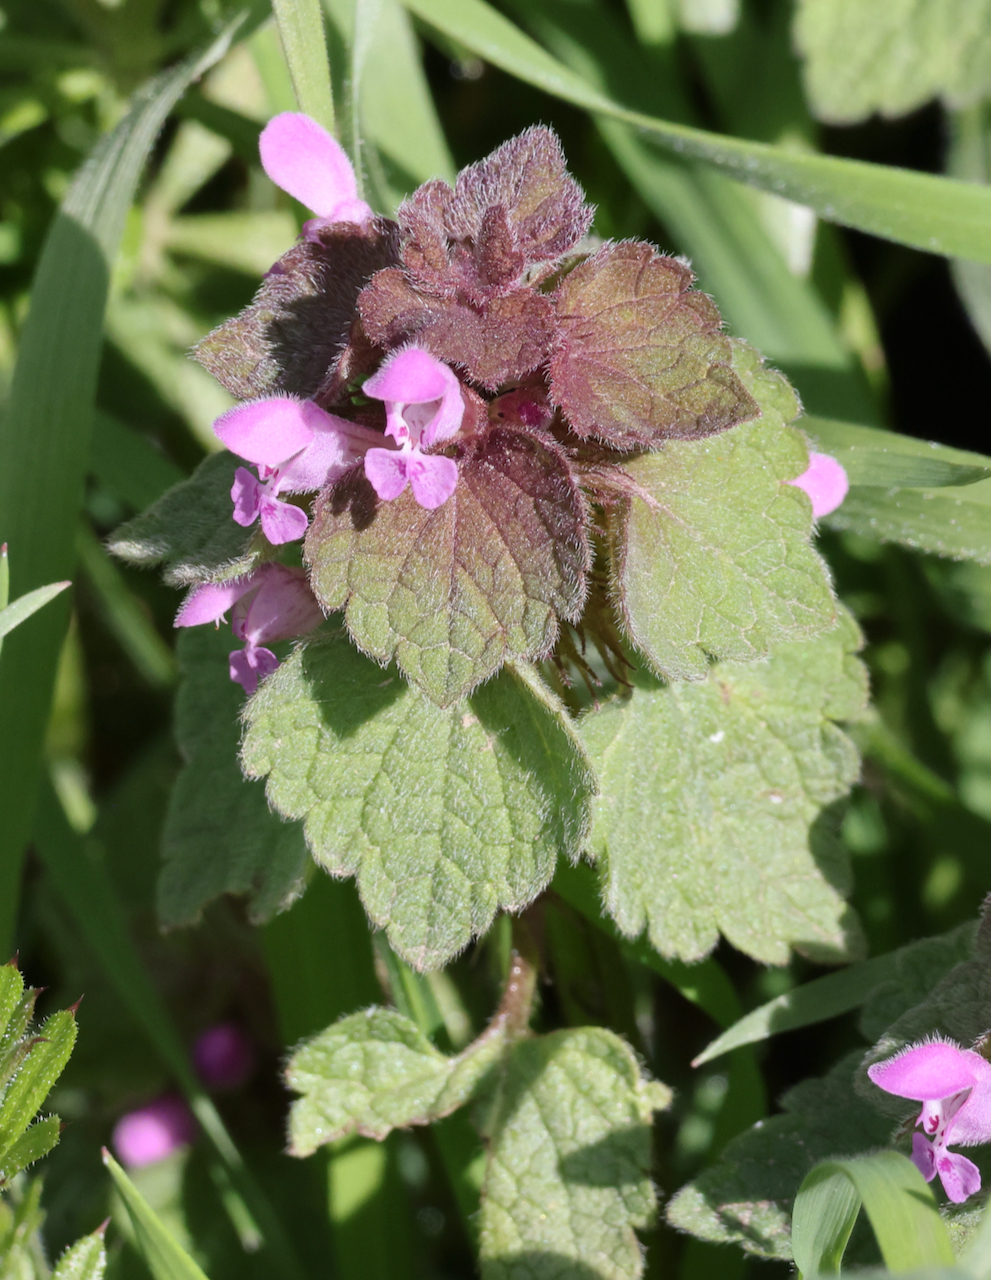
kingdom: Plantae
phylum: Tracheophyta
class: Magnoliopsida
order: Lamiales
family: Lamiaceae
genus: Lamium
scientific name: Lamium purpureum
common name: Red dead-nettle
